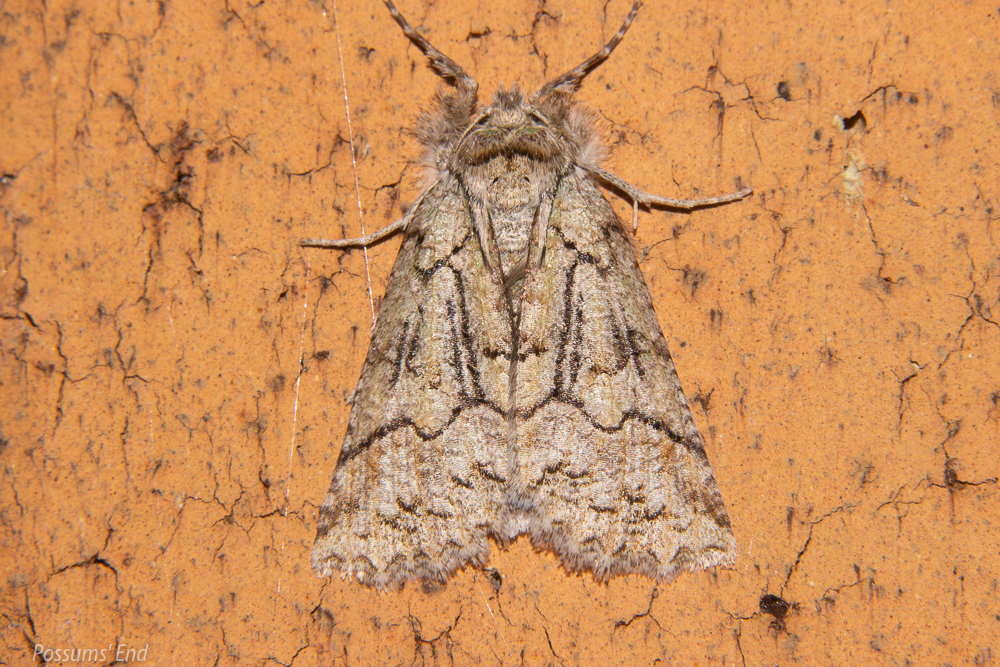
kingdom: Animalia
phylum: Arthropoda
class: Insecta
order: Lepidoptera
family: Geometridae
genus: Declana
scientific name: Declana floccosa
